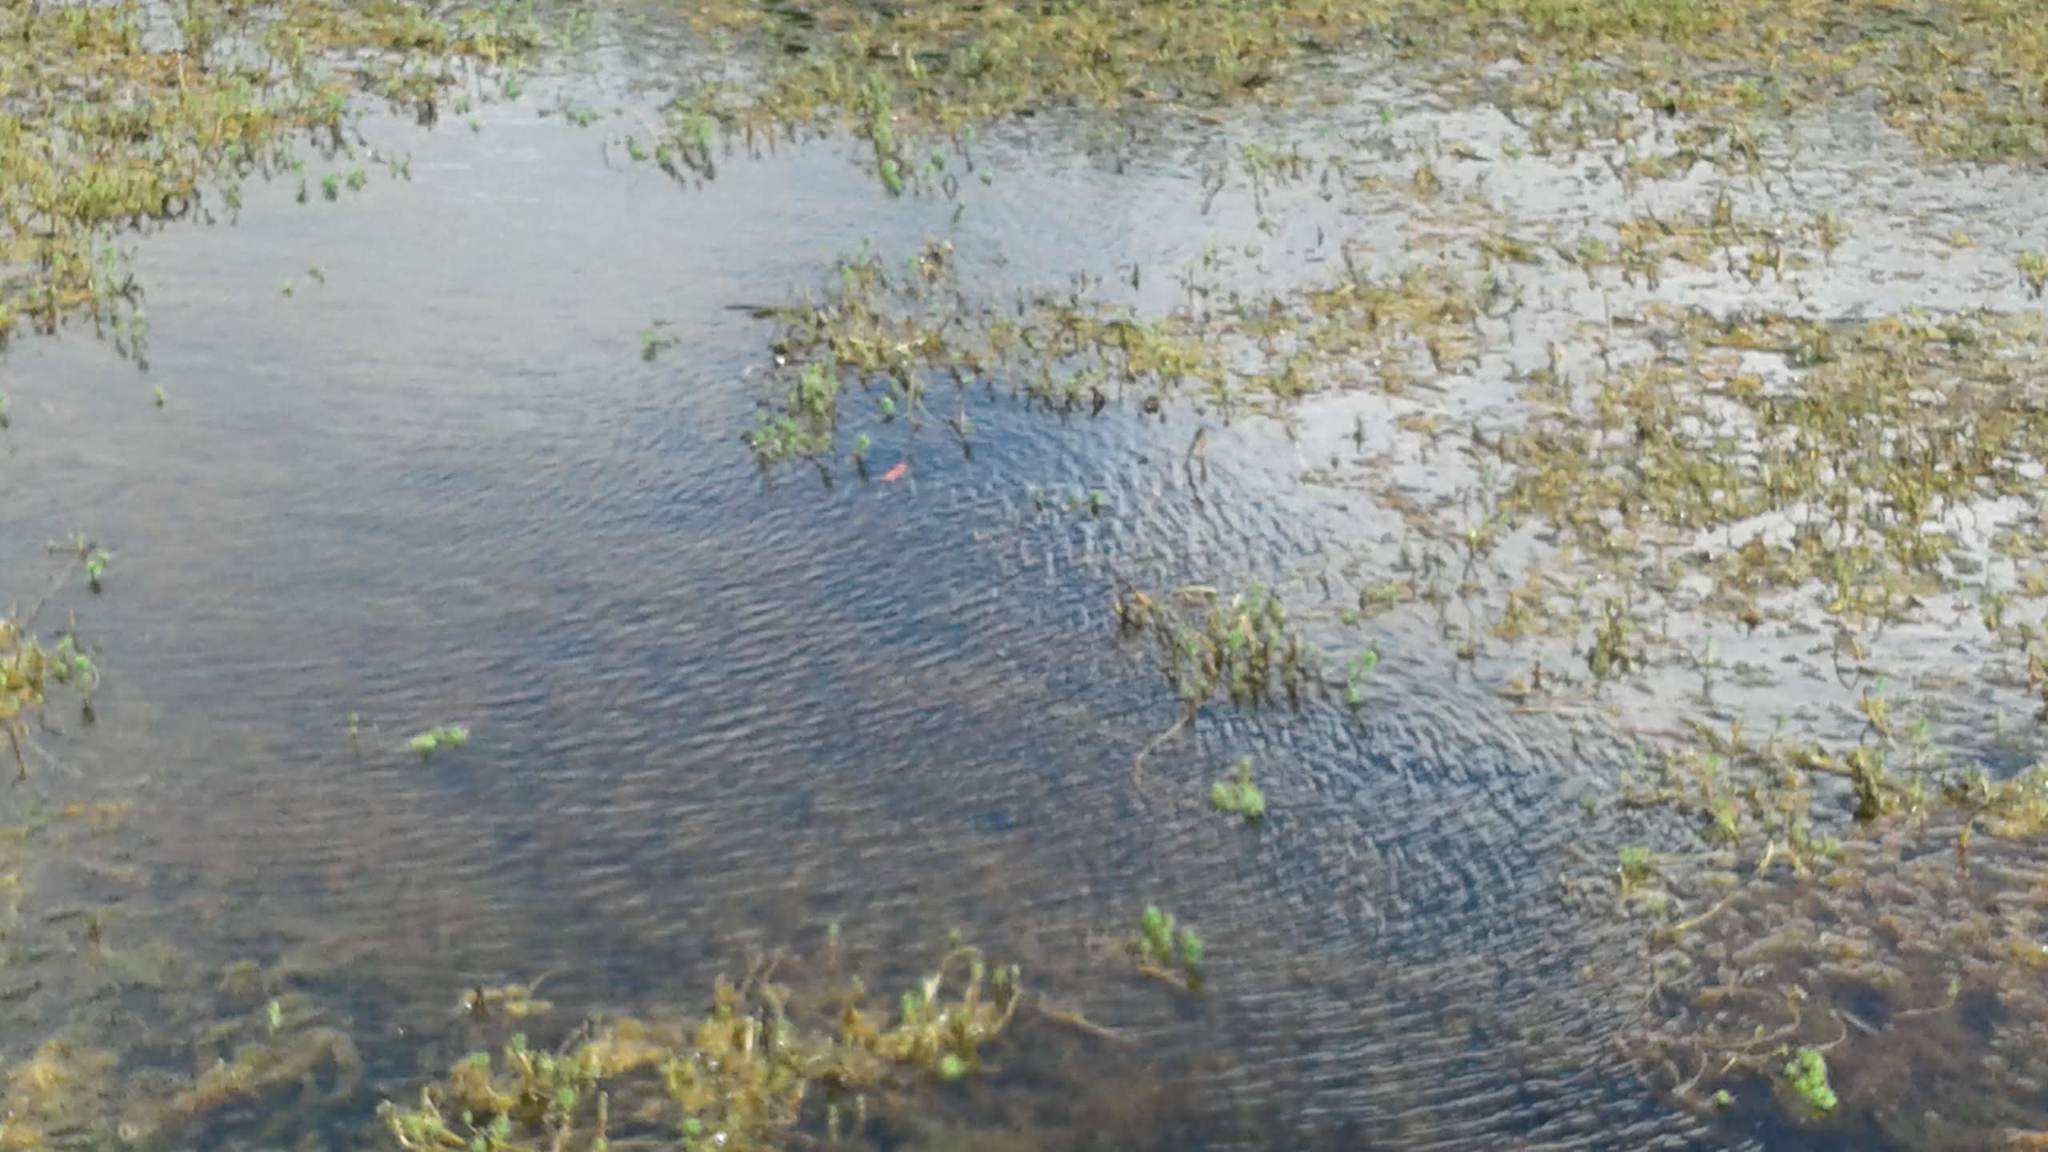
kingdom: Animalia
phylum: Chordata
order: Cypriniformes
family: Cyprinidae
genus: Carassius
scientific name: Carassius auratus
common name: Goldfish
